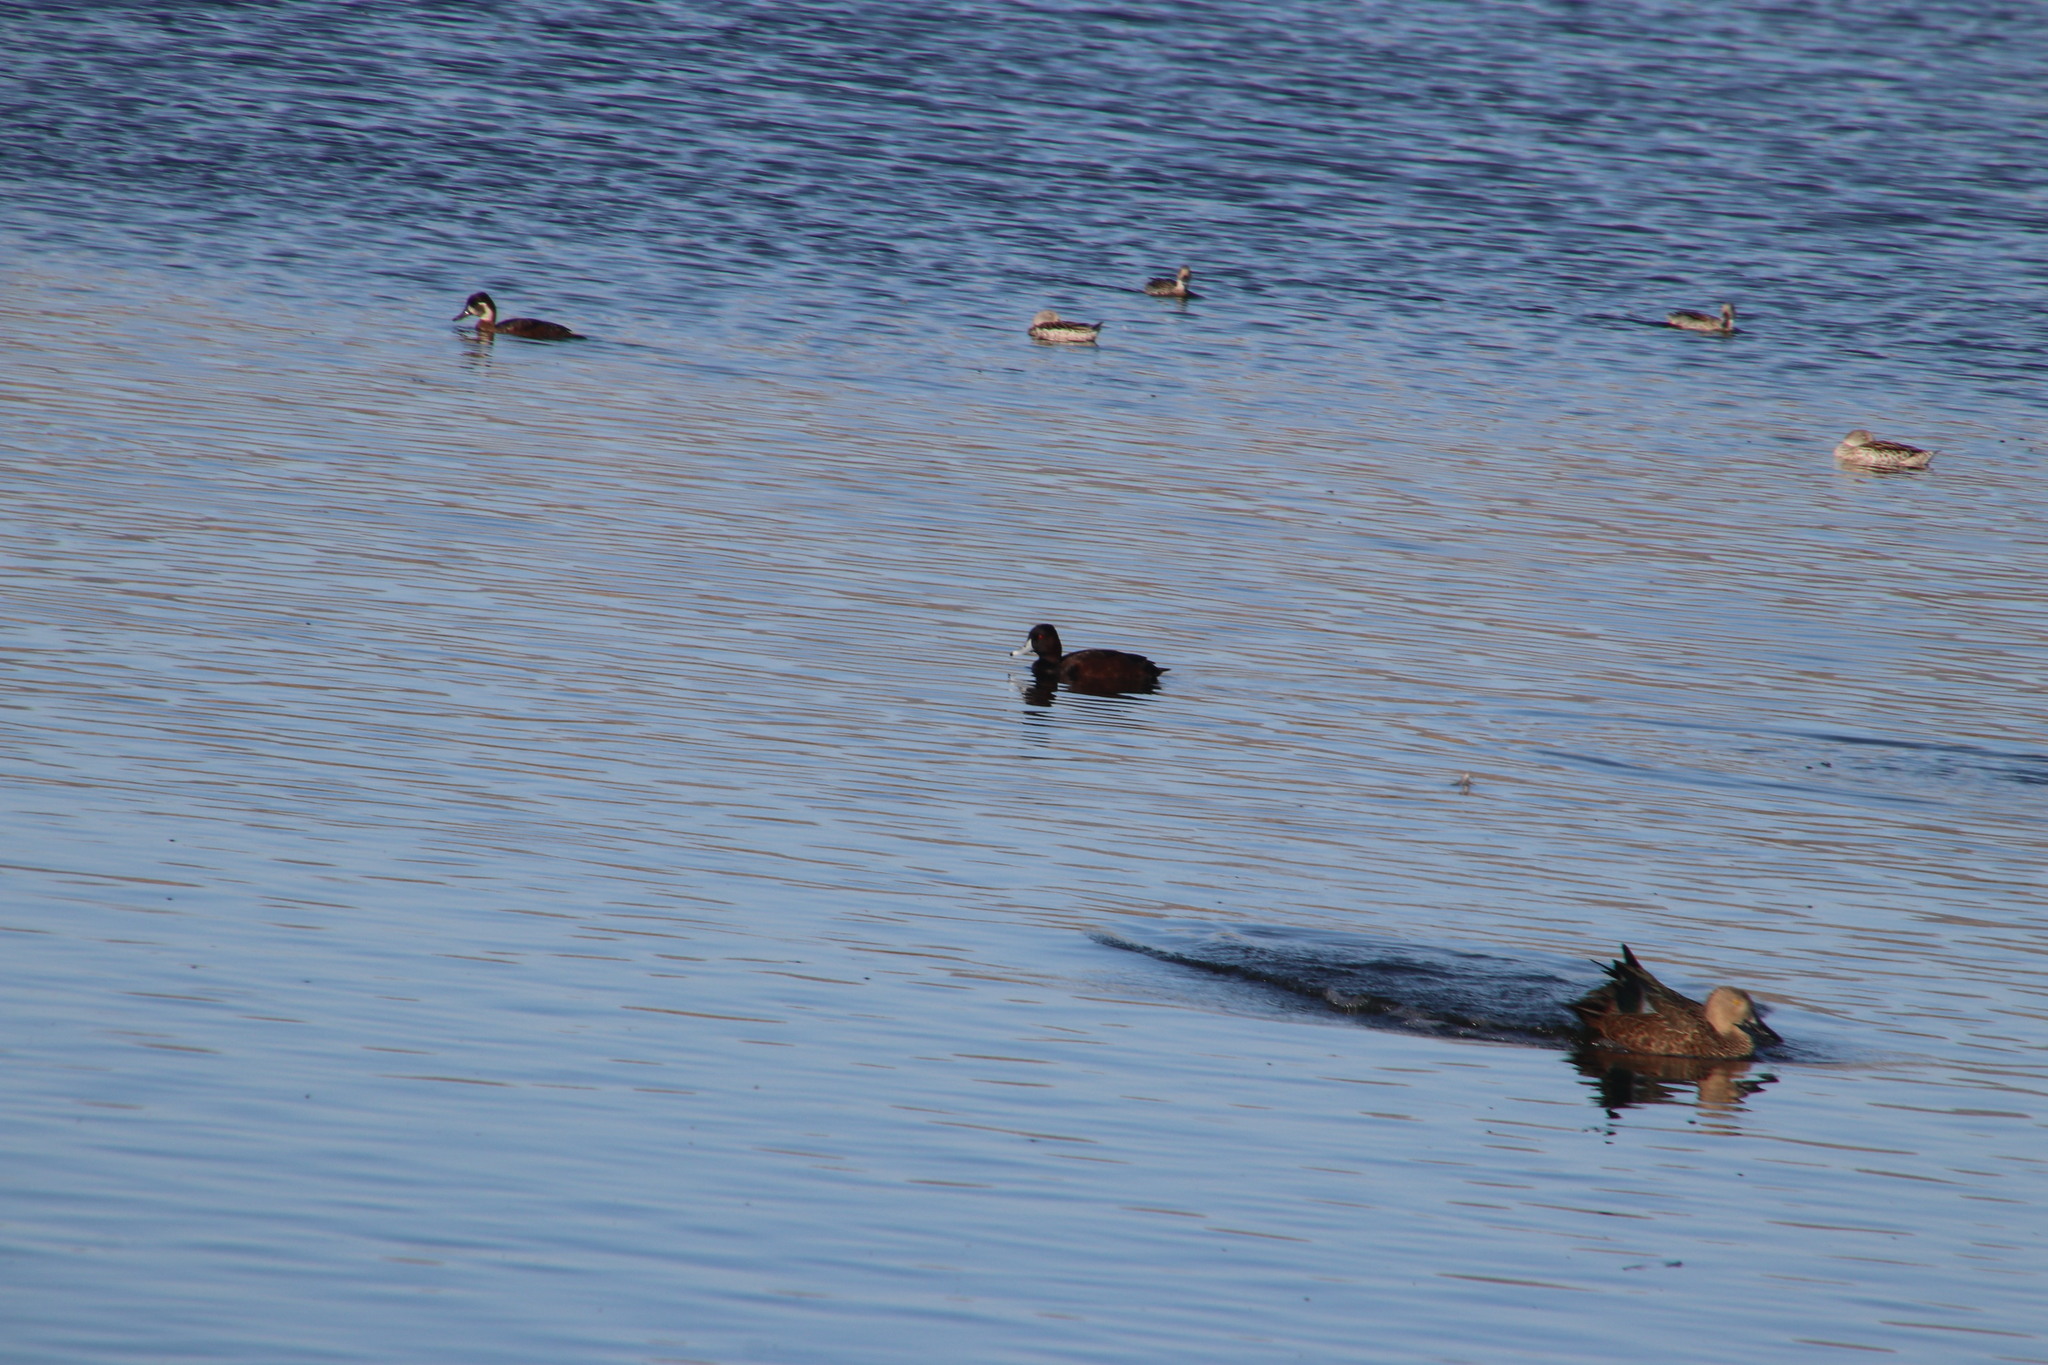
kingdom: Animalia
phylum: Chordata
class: Aves
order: Anseriformes
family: Anatidae
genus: Netta
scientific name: Netta erythrophthalma
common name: Southern pochard
